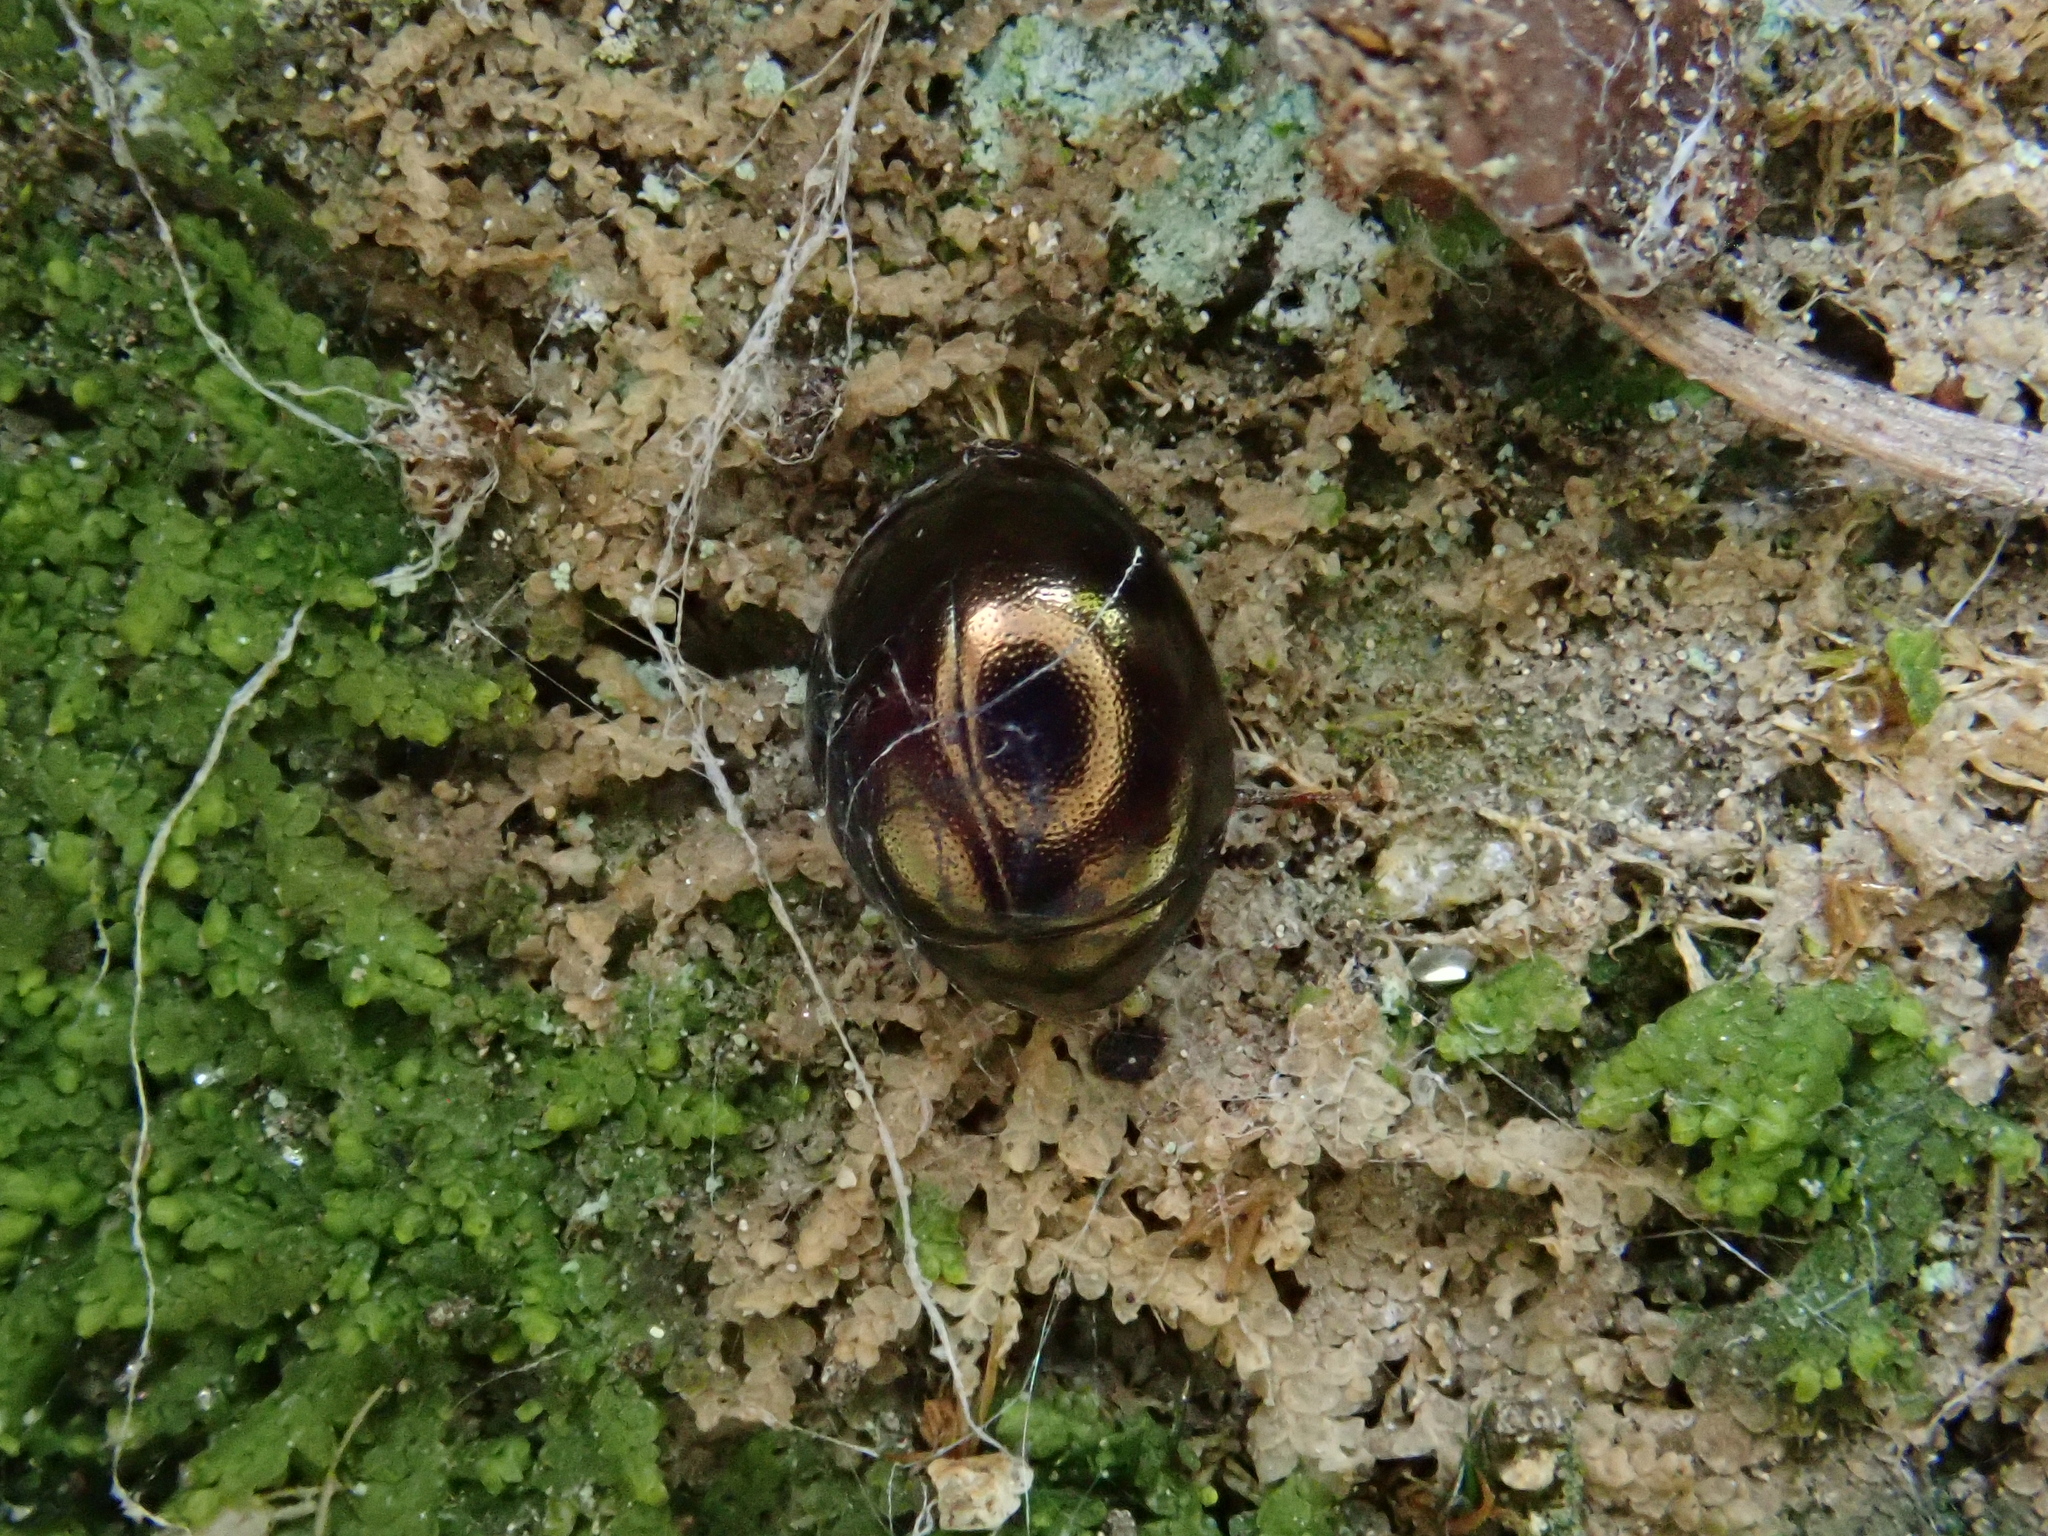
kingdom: Animalia
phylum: Arthropoda
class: Insecta
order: Coleoptera
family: Byrrhidae
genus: Pedilophorus
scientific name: Pedilophorus auratus
